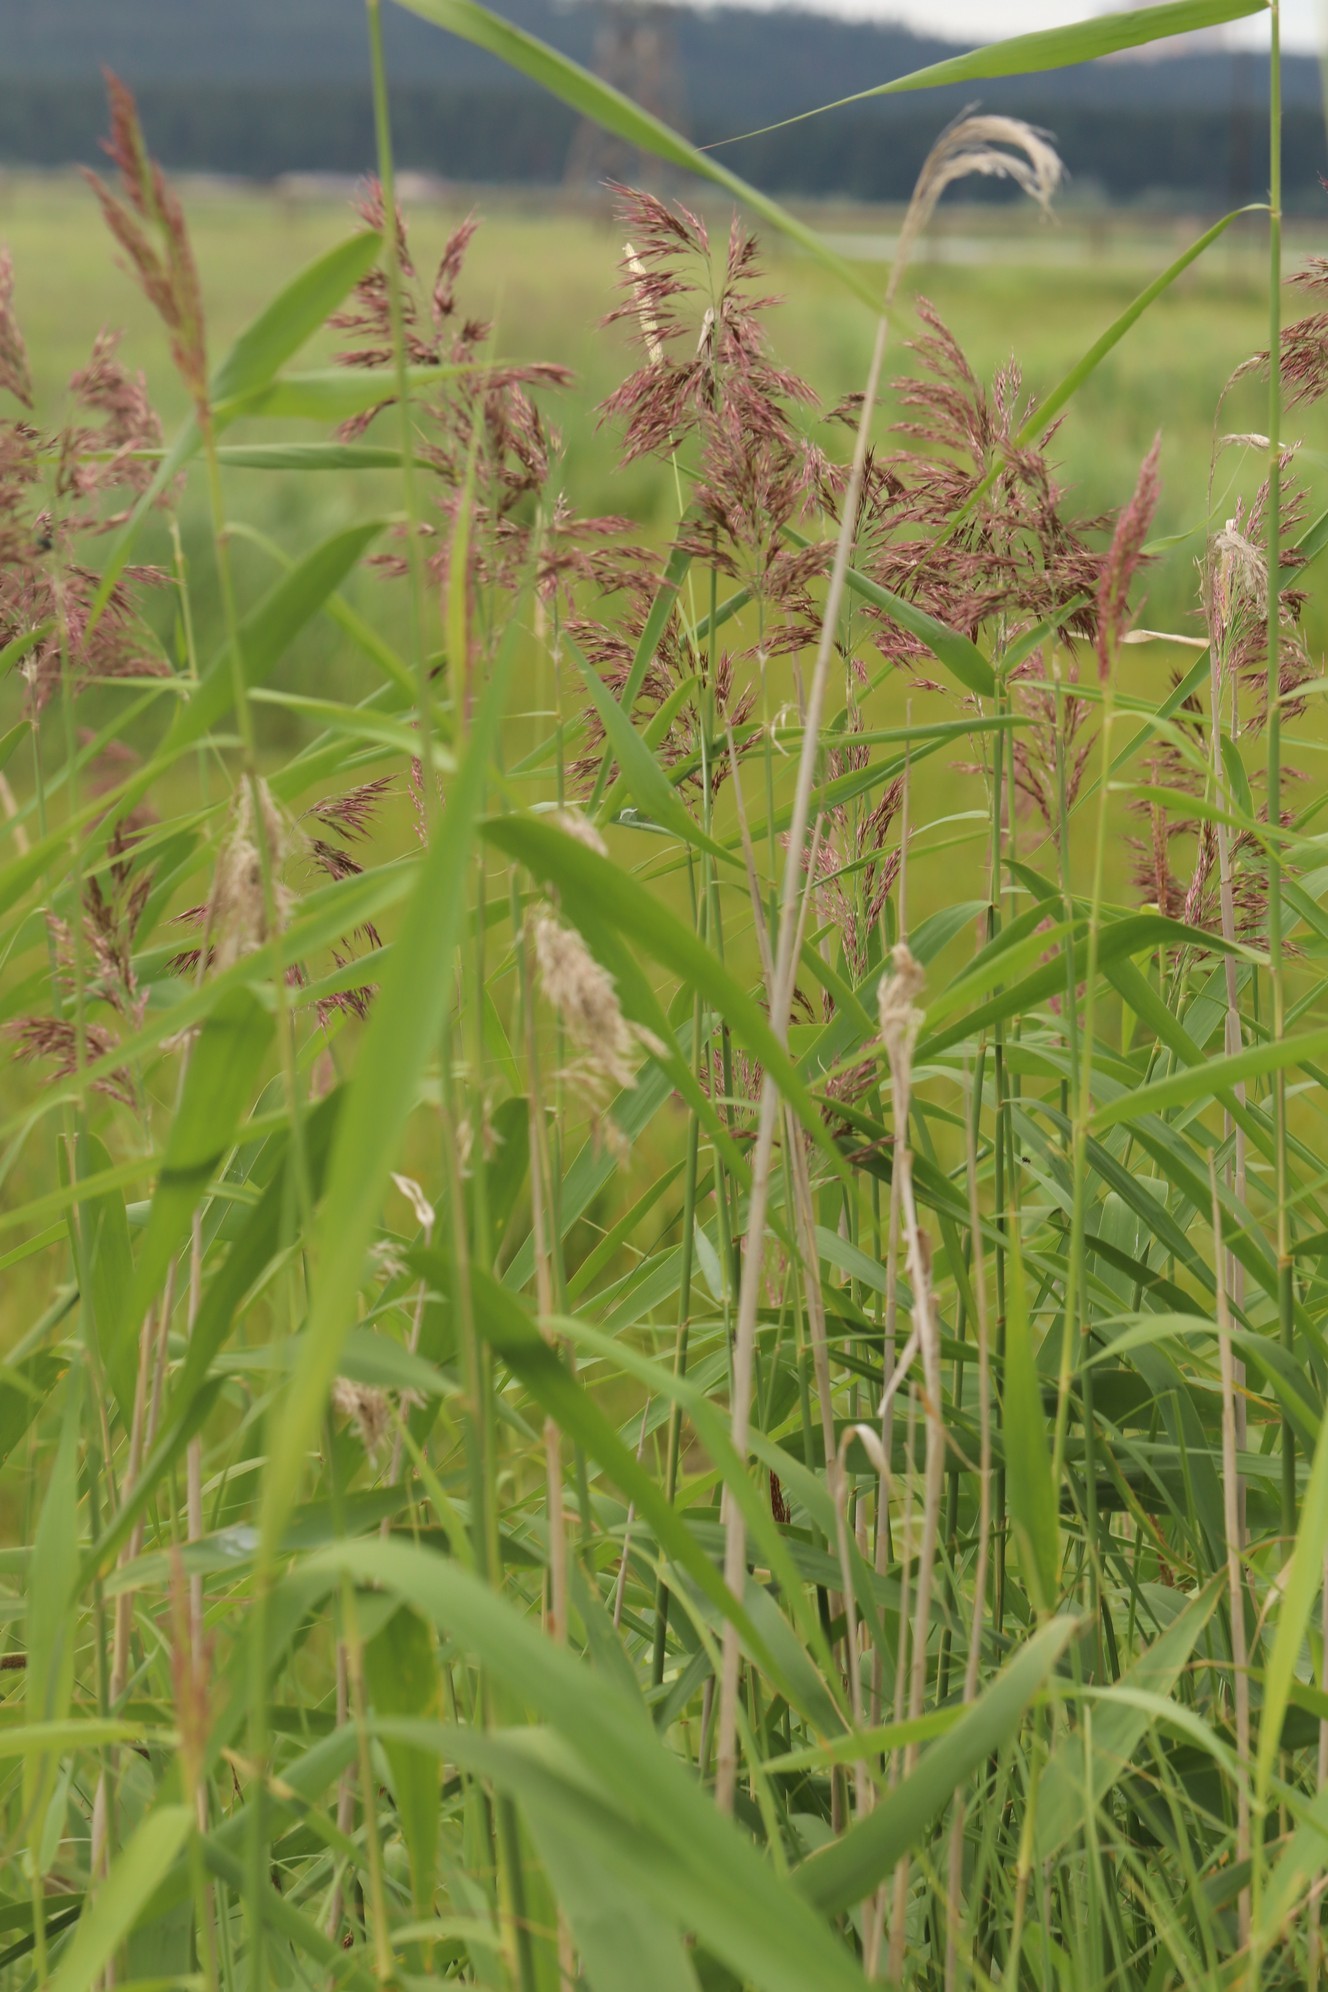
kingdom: Plantae
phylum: Tracheophyta
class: Liliopsida
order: Poales
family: Poaceae
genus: Phragmites
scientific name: Phragmites australis
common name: Common reed
